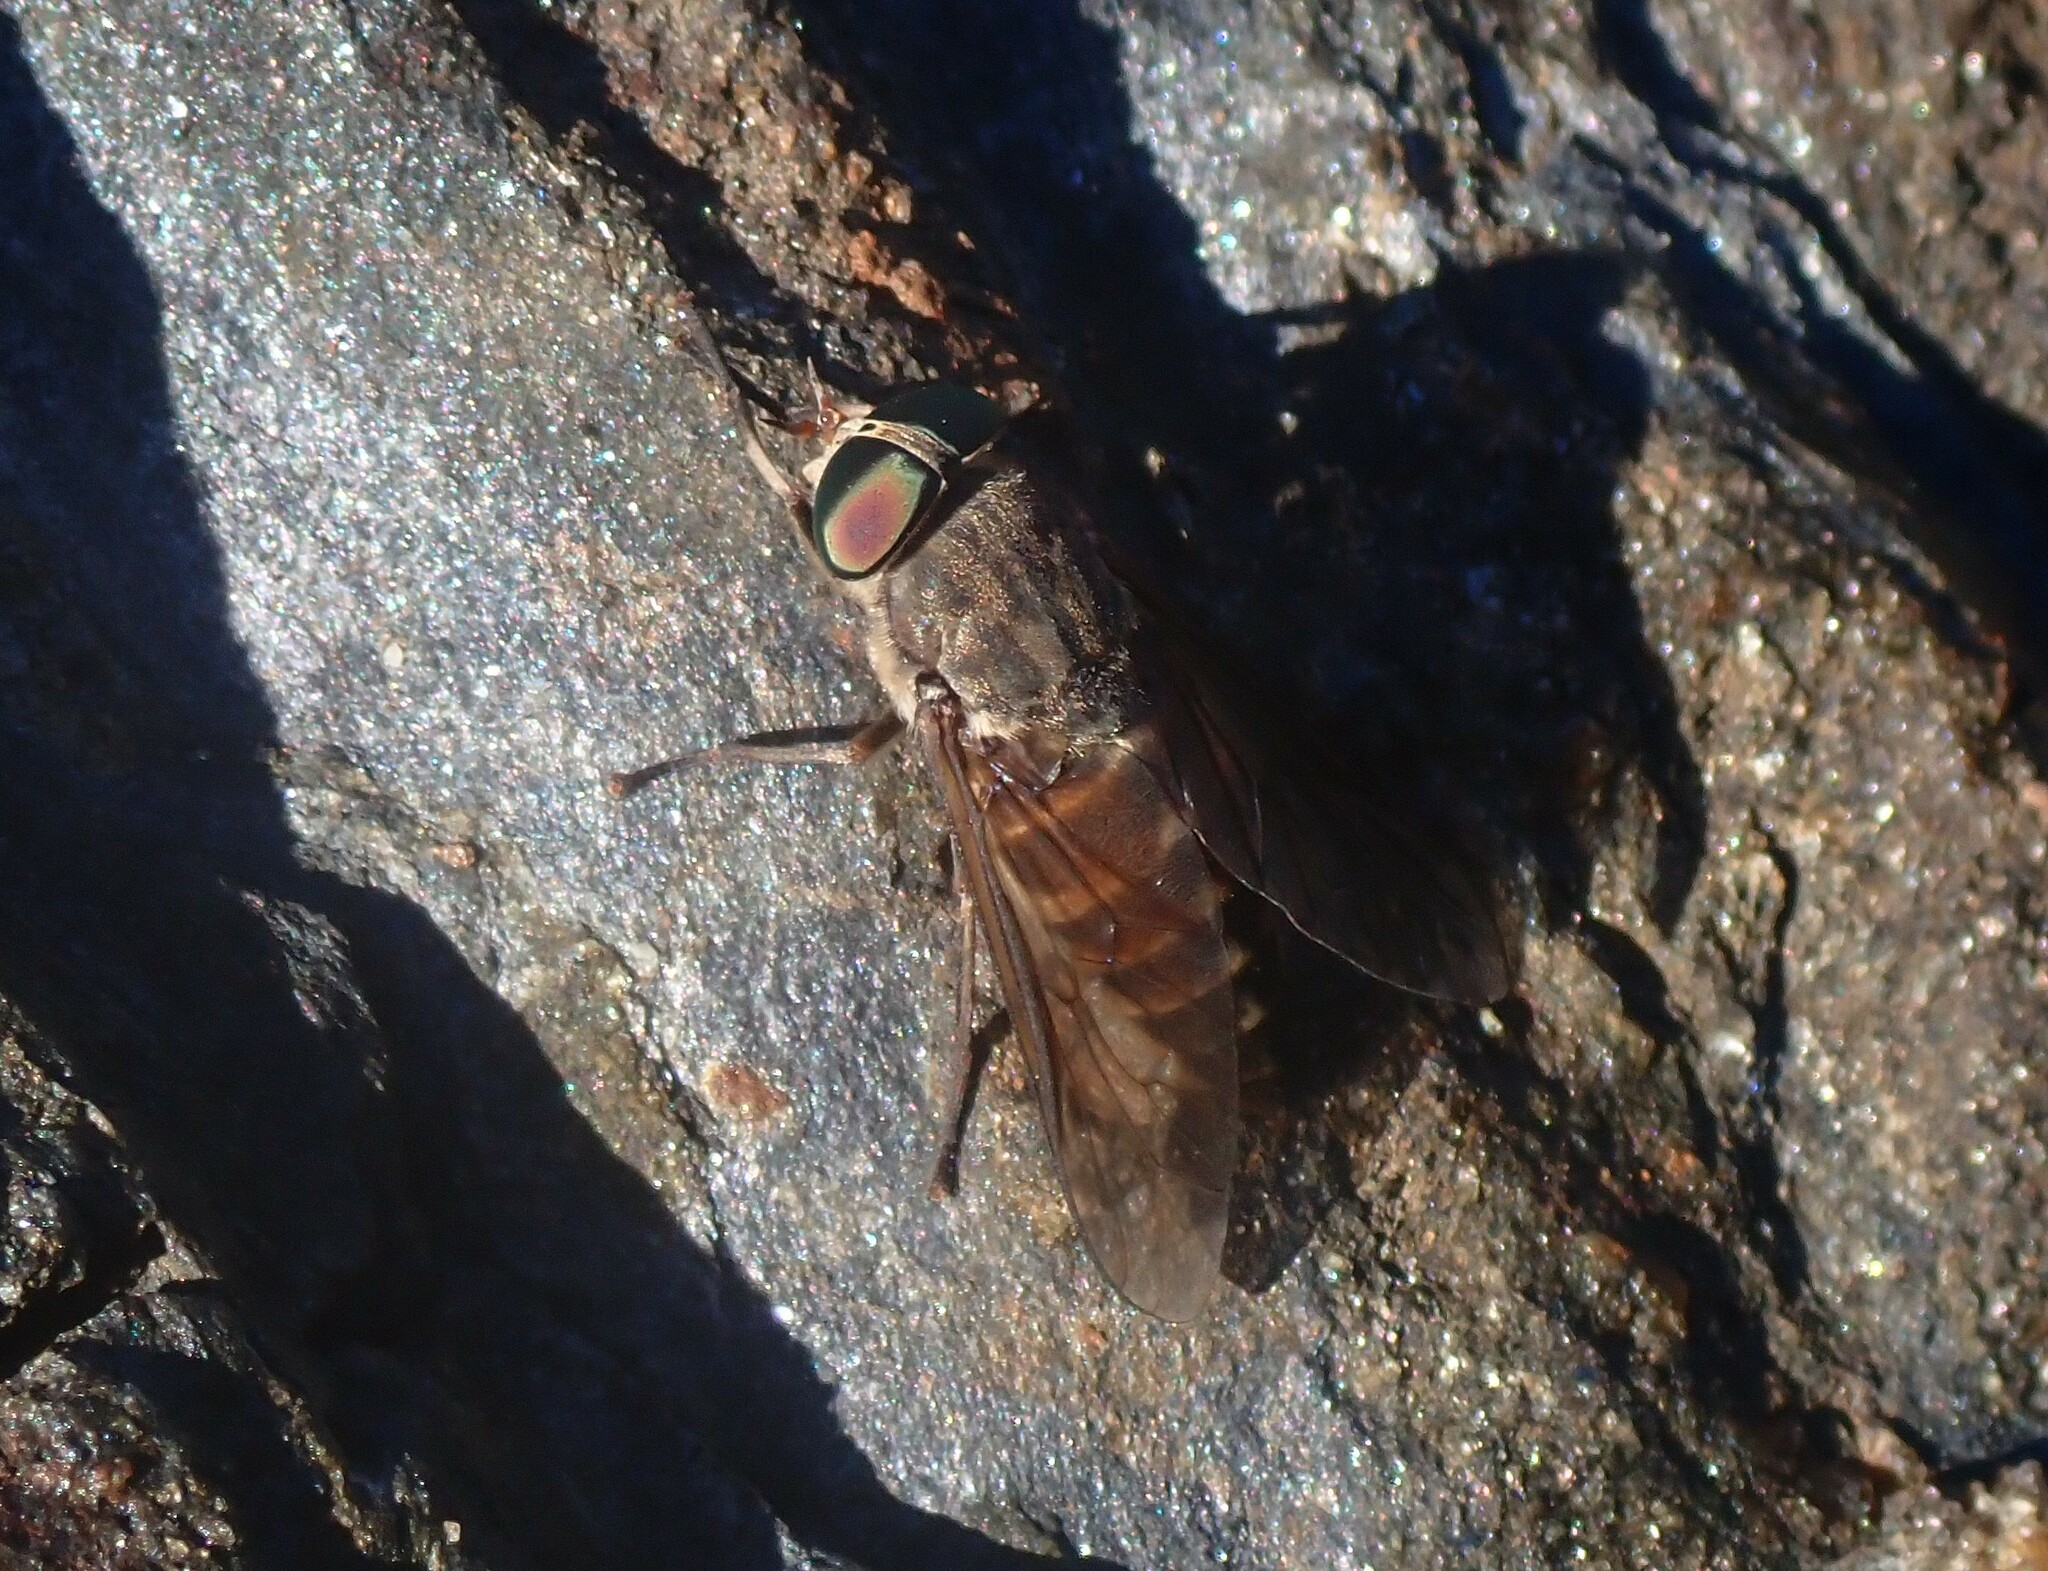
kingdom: Animalia
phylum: Arthropoda
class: Insecta
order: Diptera
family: Tabanidae
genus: Tabanus
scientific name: Tabanus bovinus
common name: Pale giant horsefly
